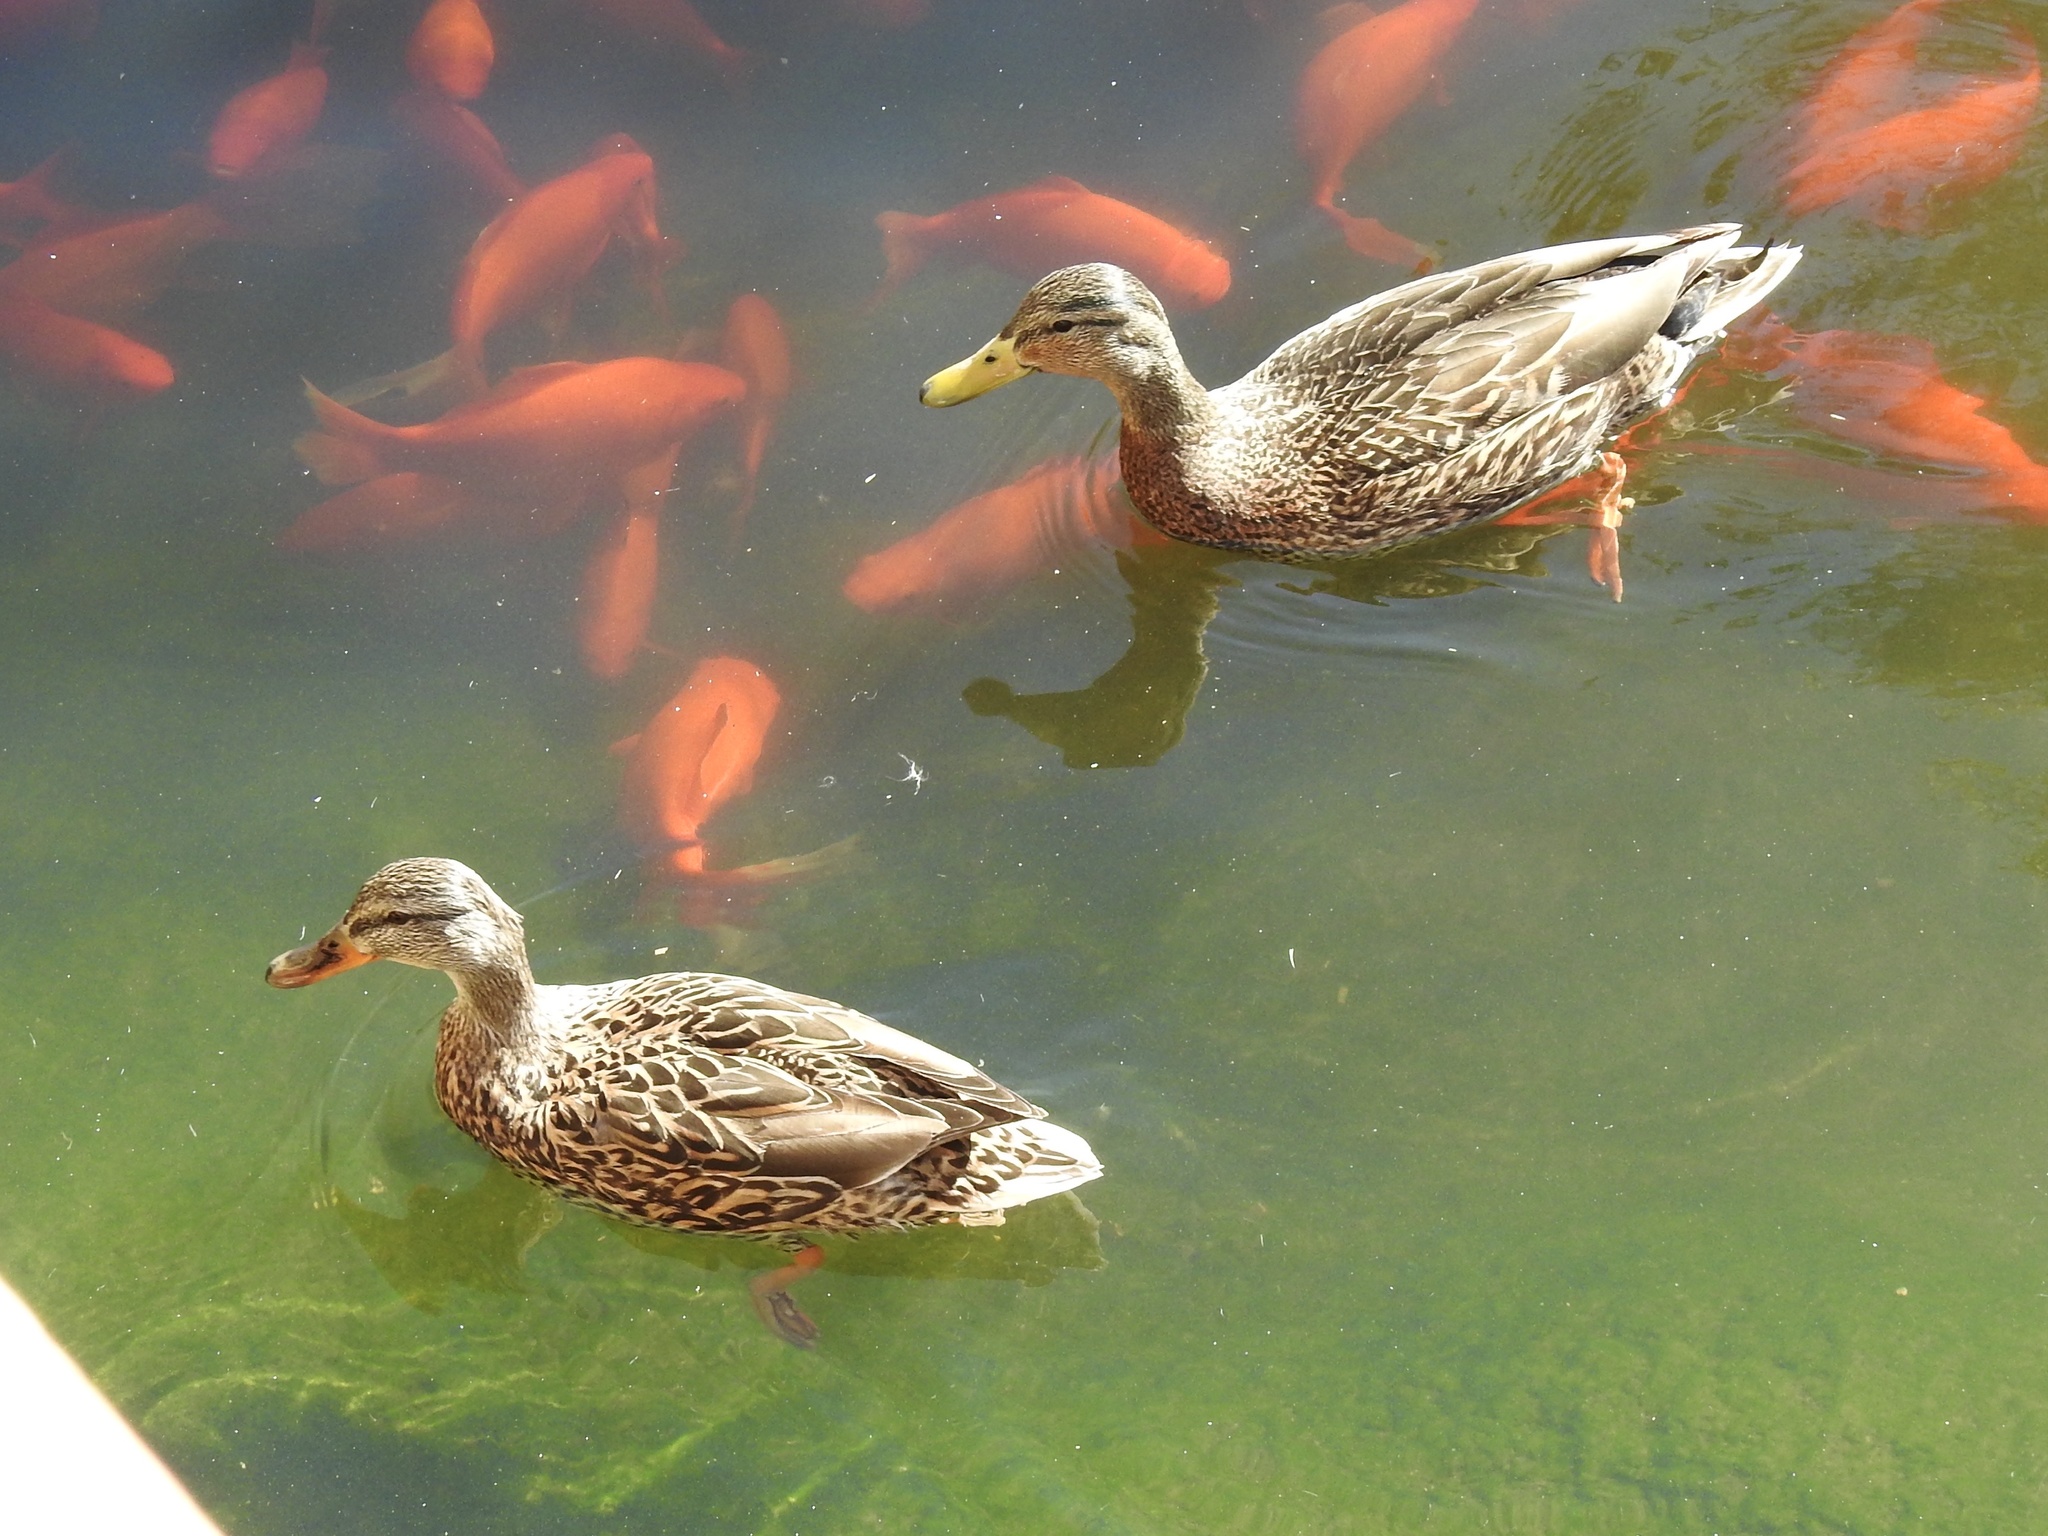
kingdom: Animalia
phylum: Chordata
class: Aves
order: Anseriformes
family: Anatidae
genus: Anas
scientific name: Anas
